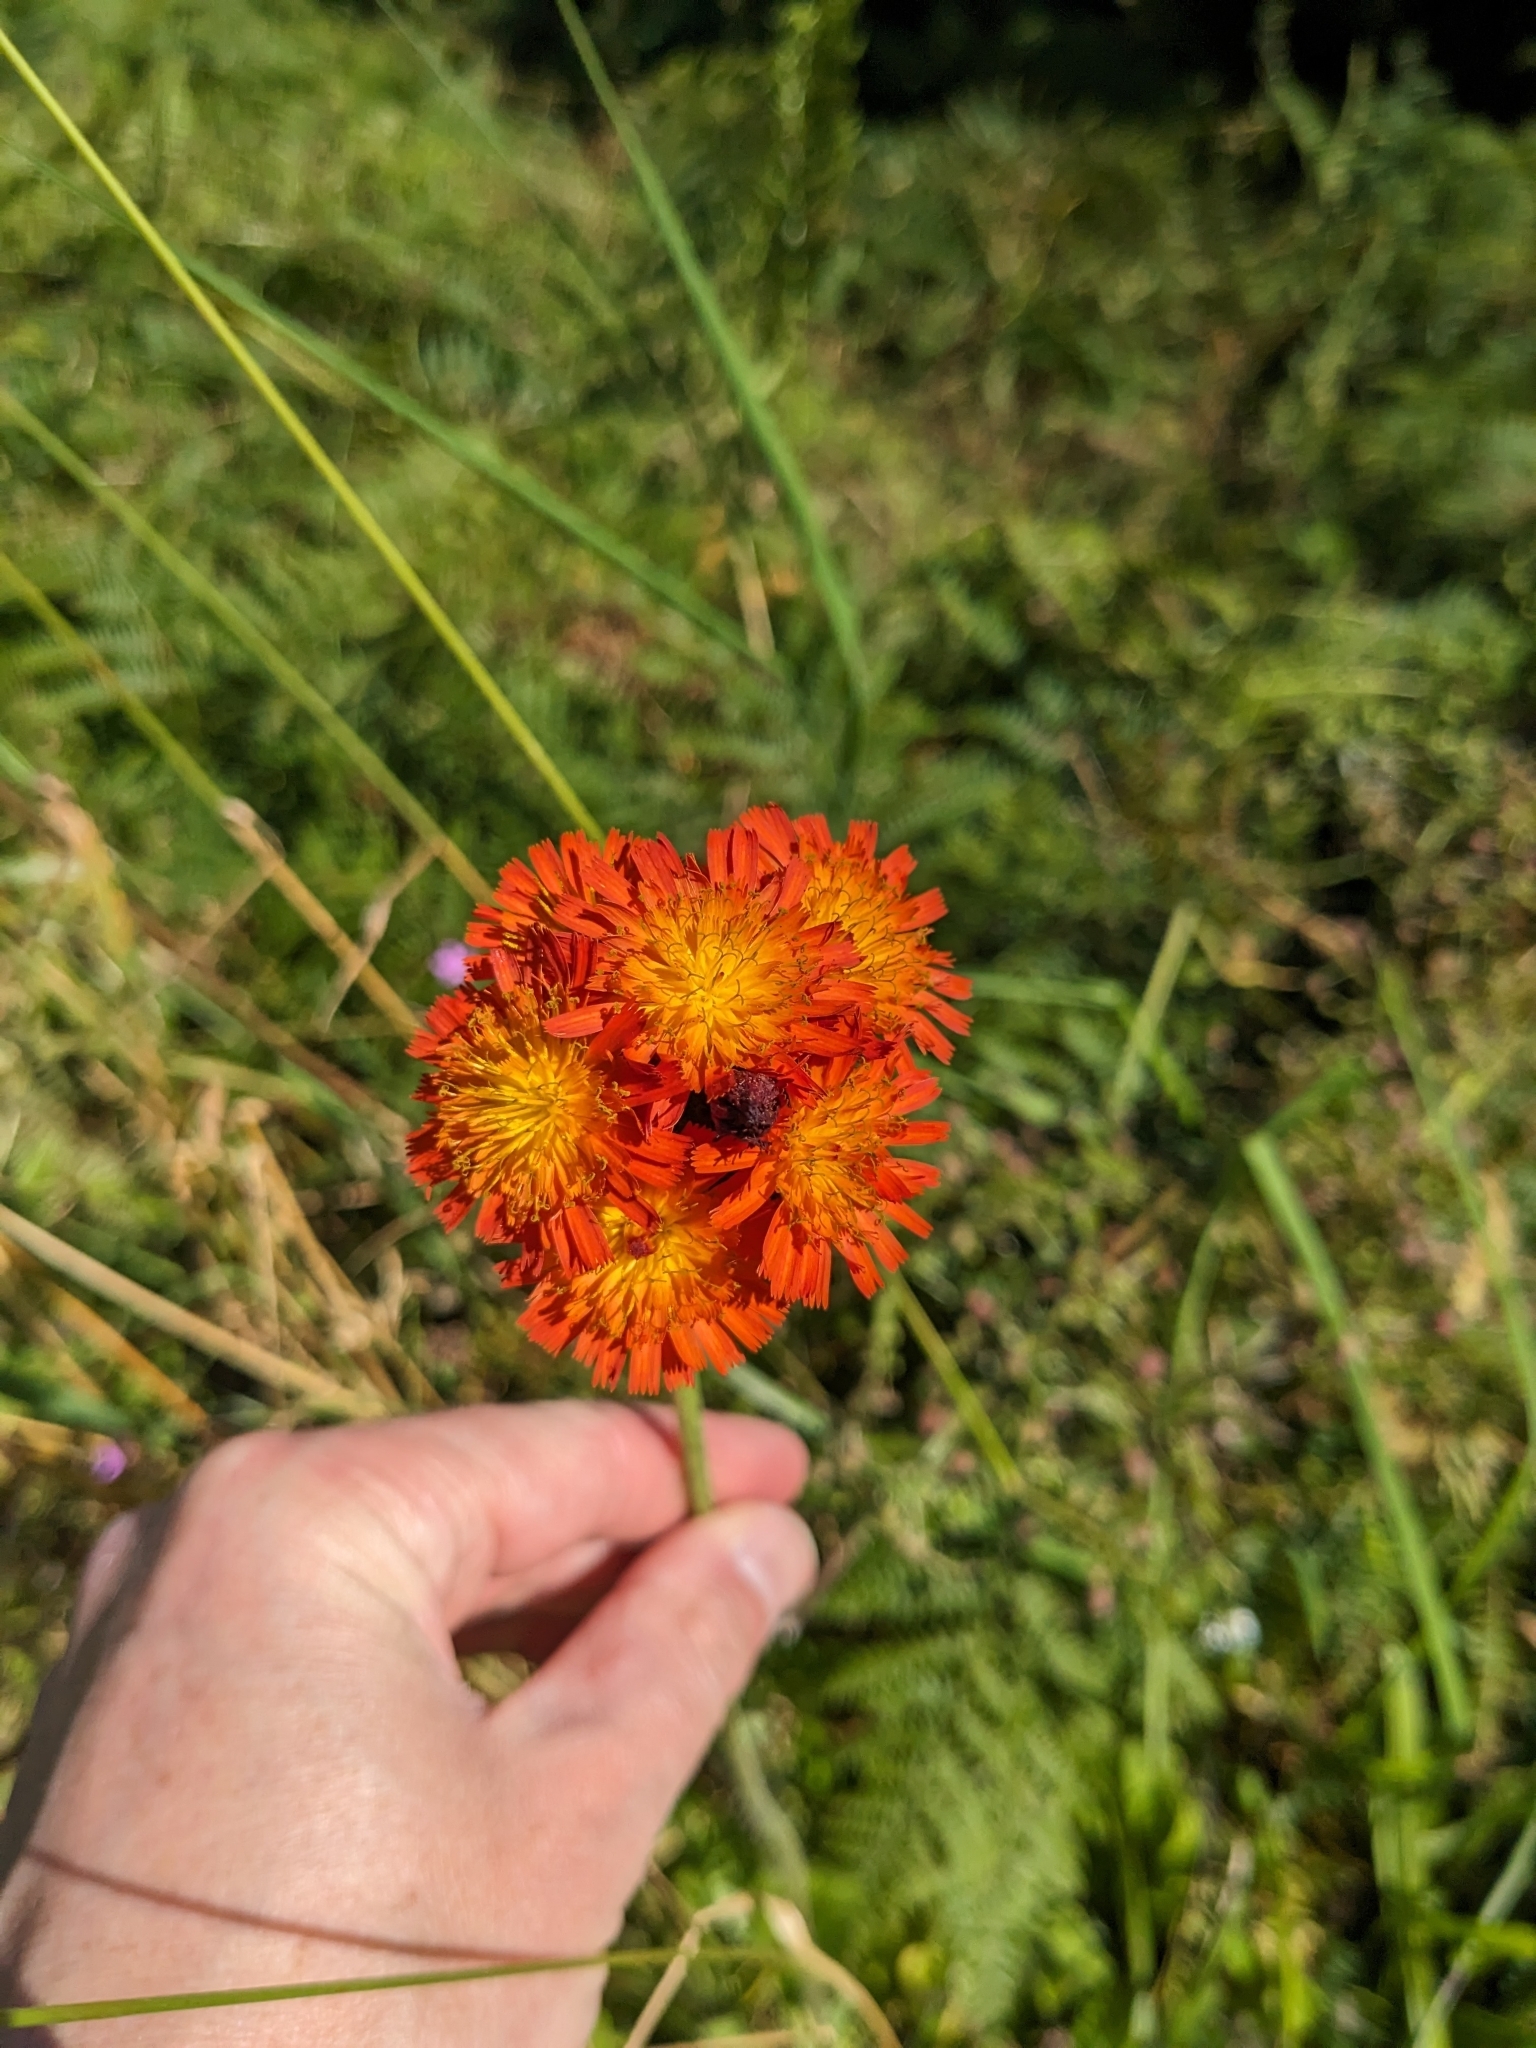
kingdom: Plantae
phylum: Tracheophyta
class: Magnoliopsida
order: Asterales
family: Asteraceae
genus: Pilosella
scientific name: Pilosella aurantiaca
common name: Fox-and-cubs
